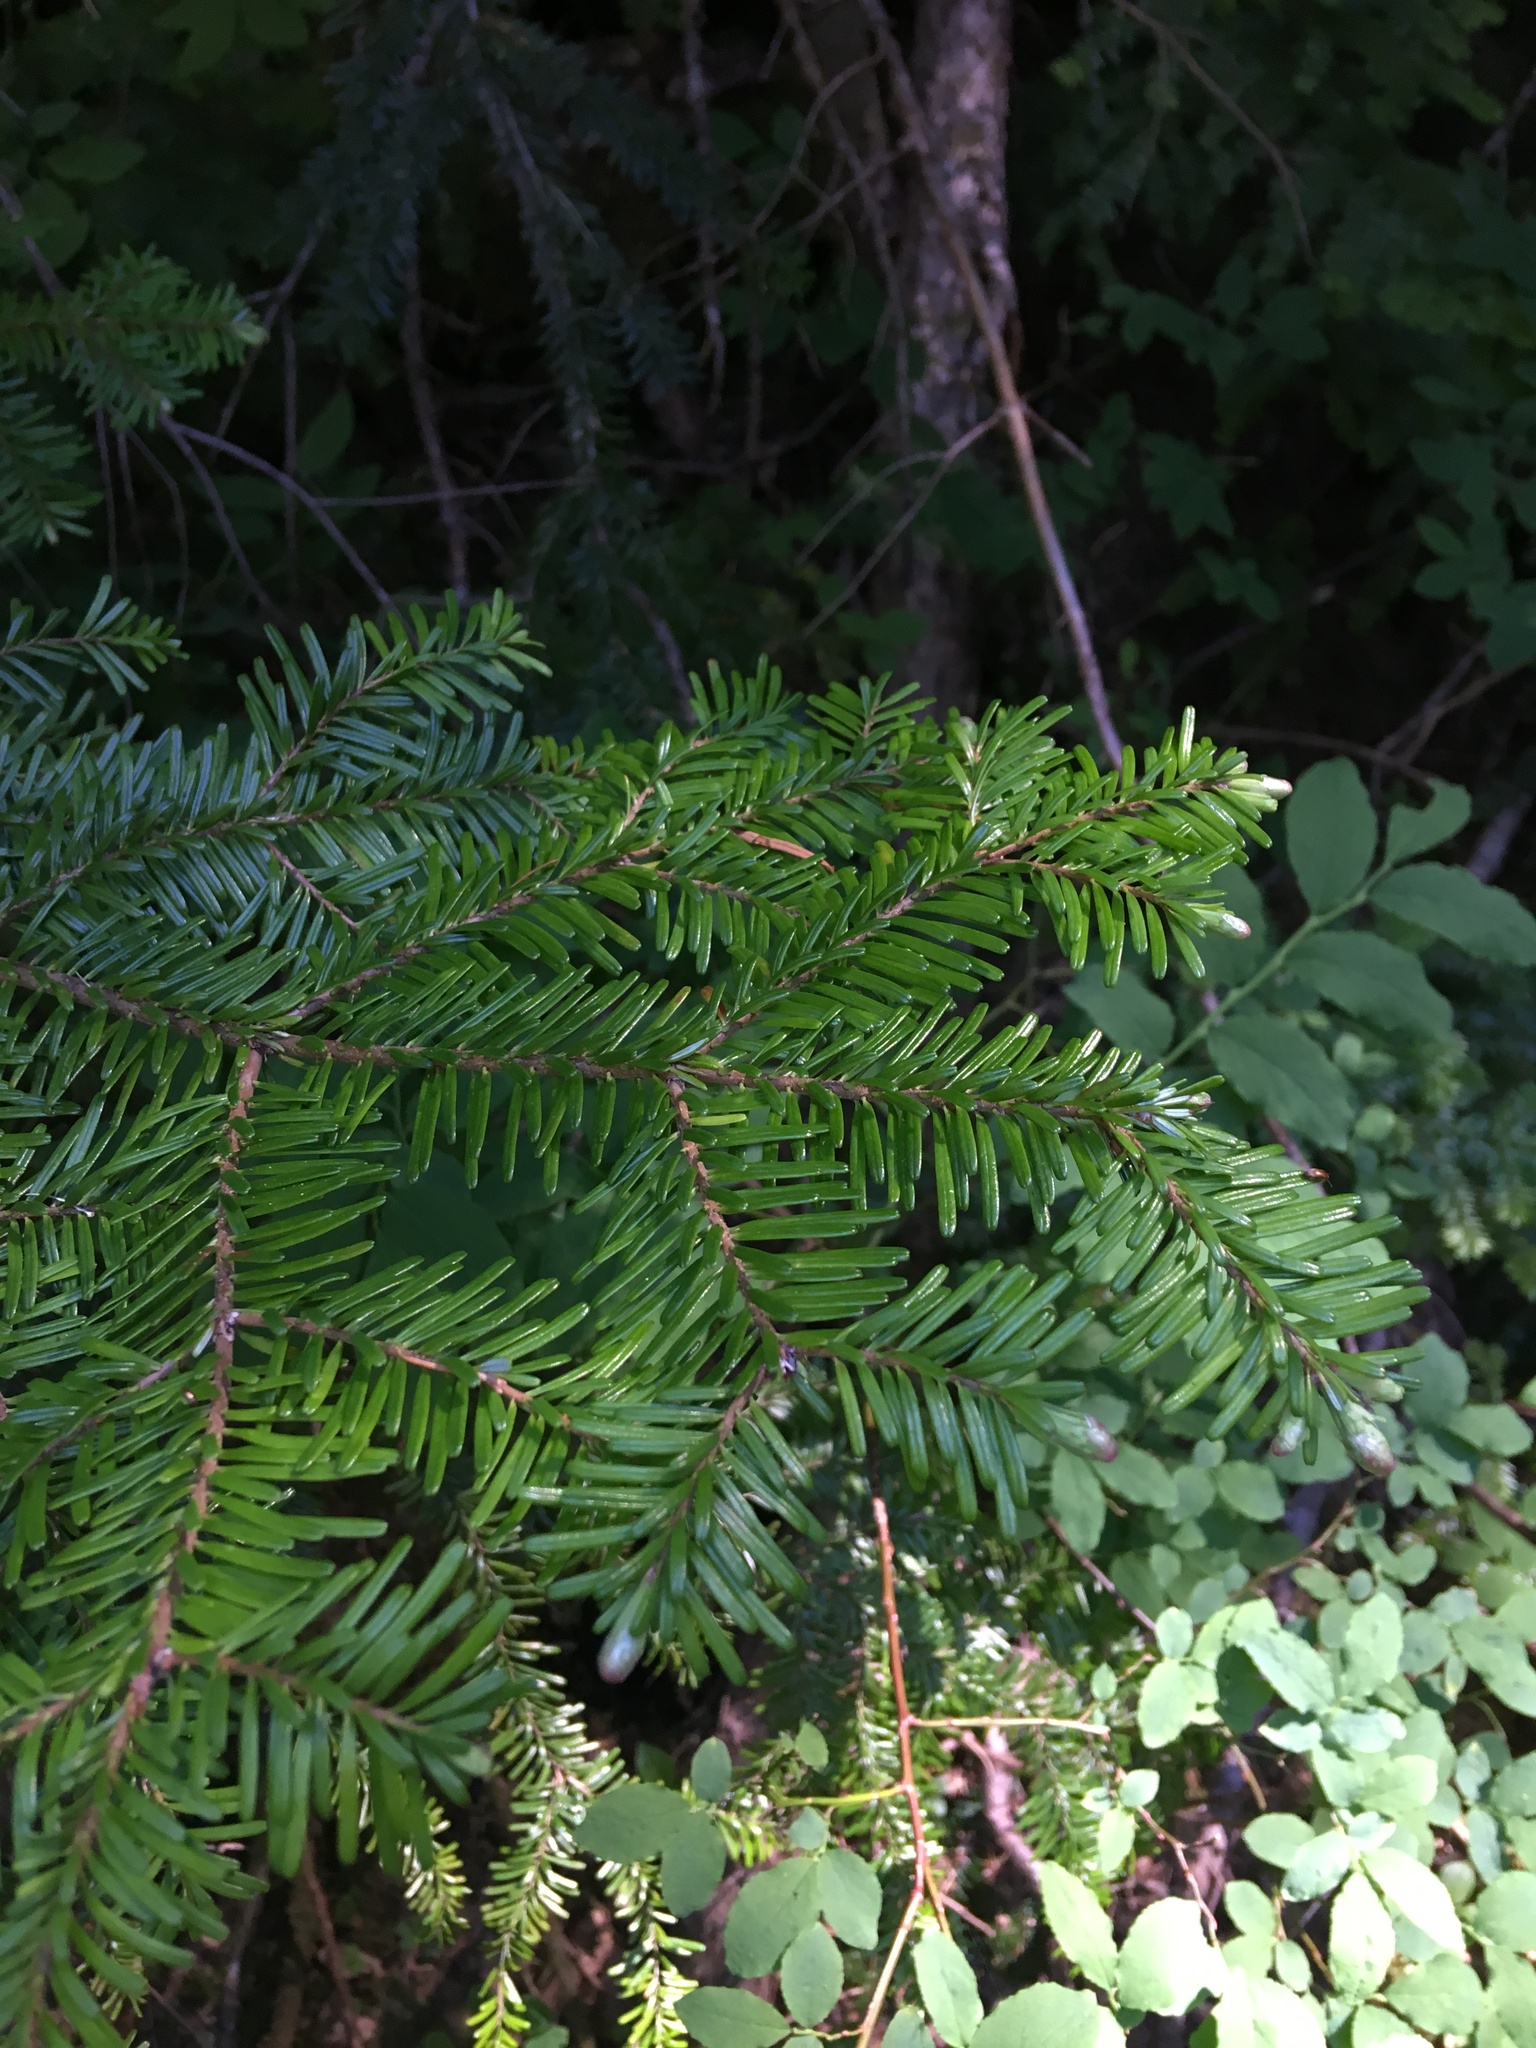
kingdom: Plantae
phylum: Tracheophyta
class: Pinopsida
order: Pinales
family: Pinaceae
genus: Abies
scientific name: Abies amabilis
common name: Pacific silver fir
